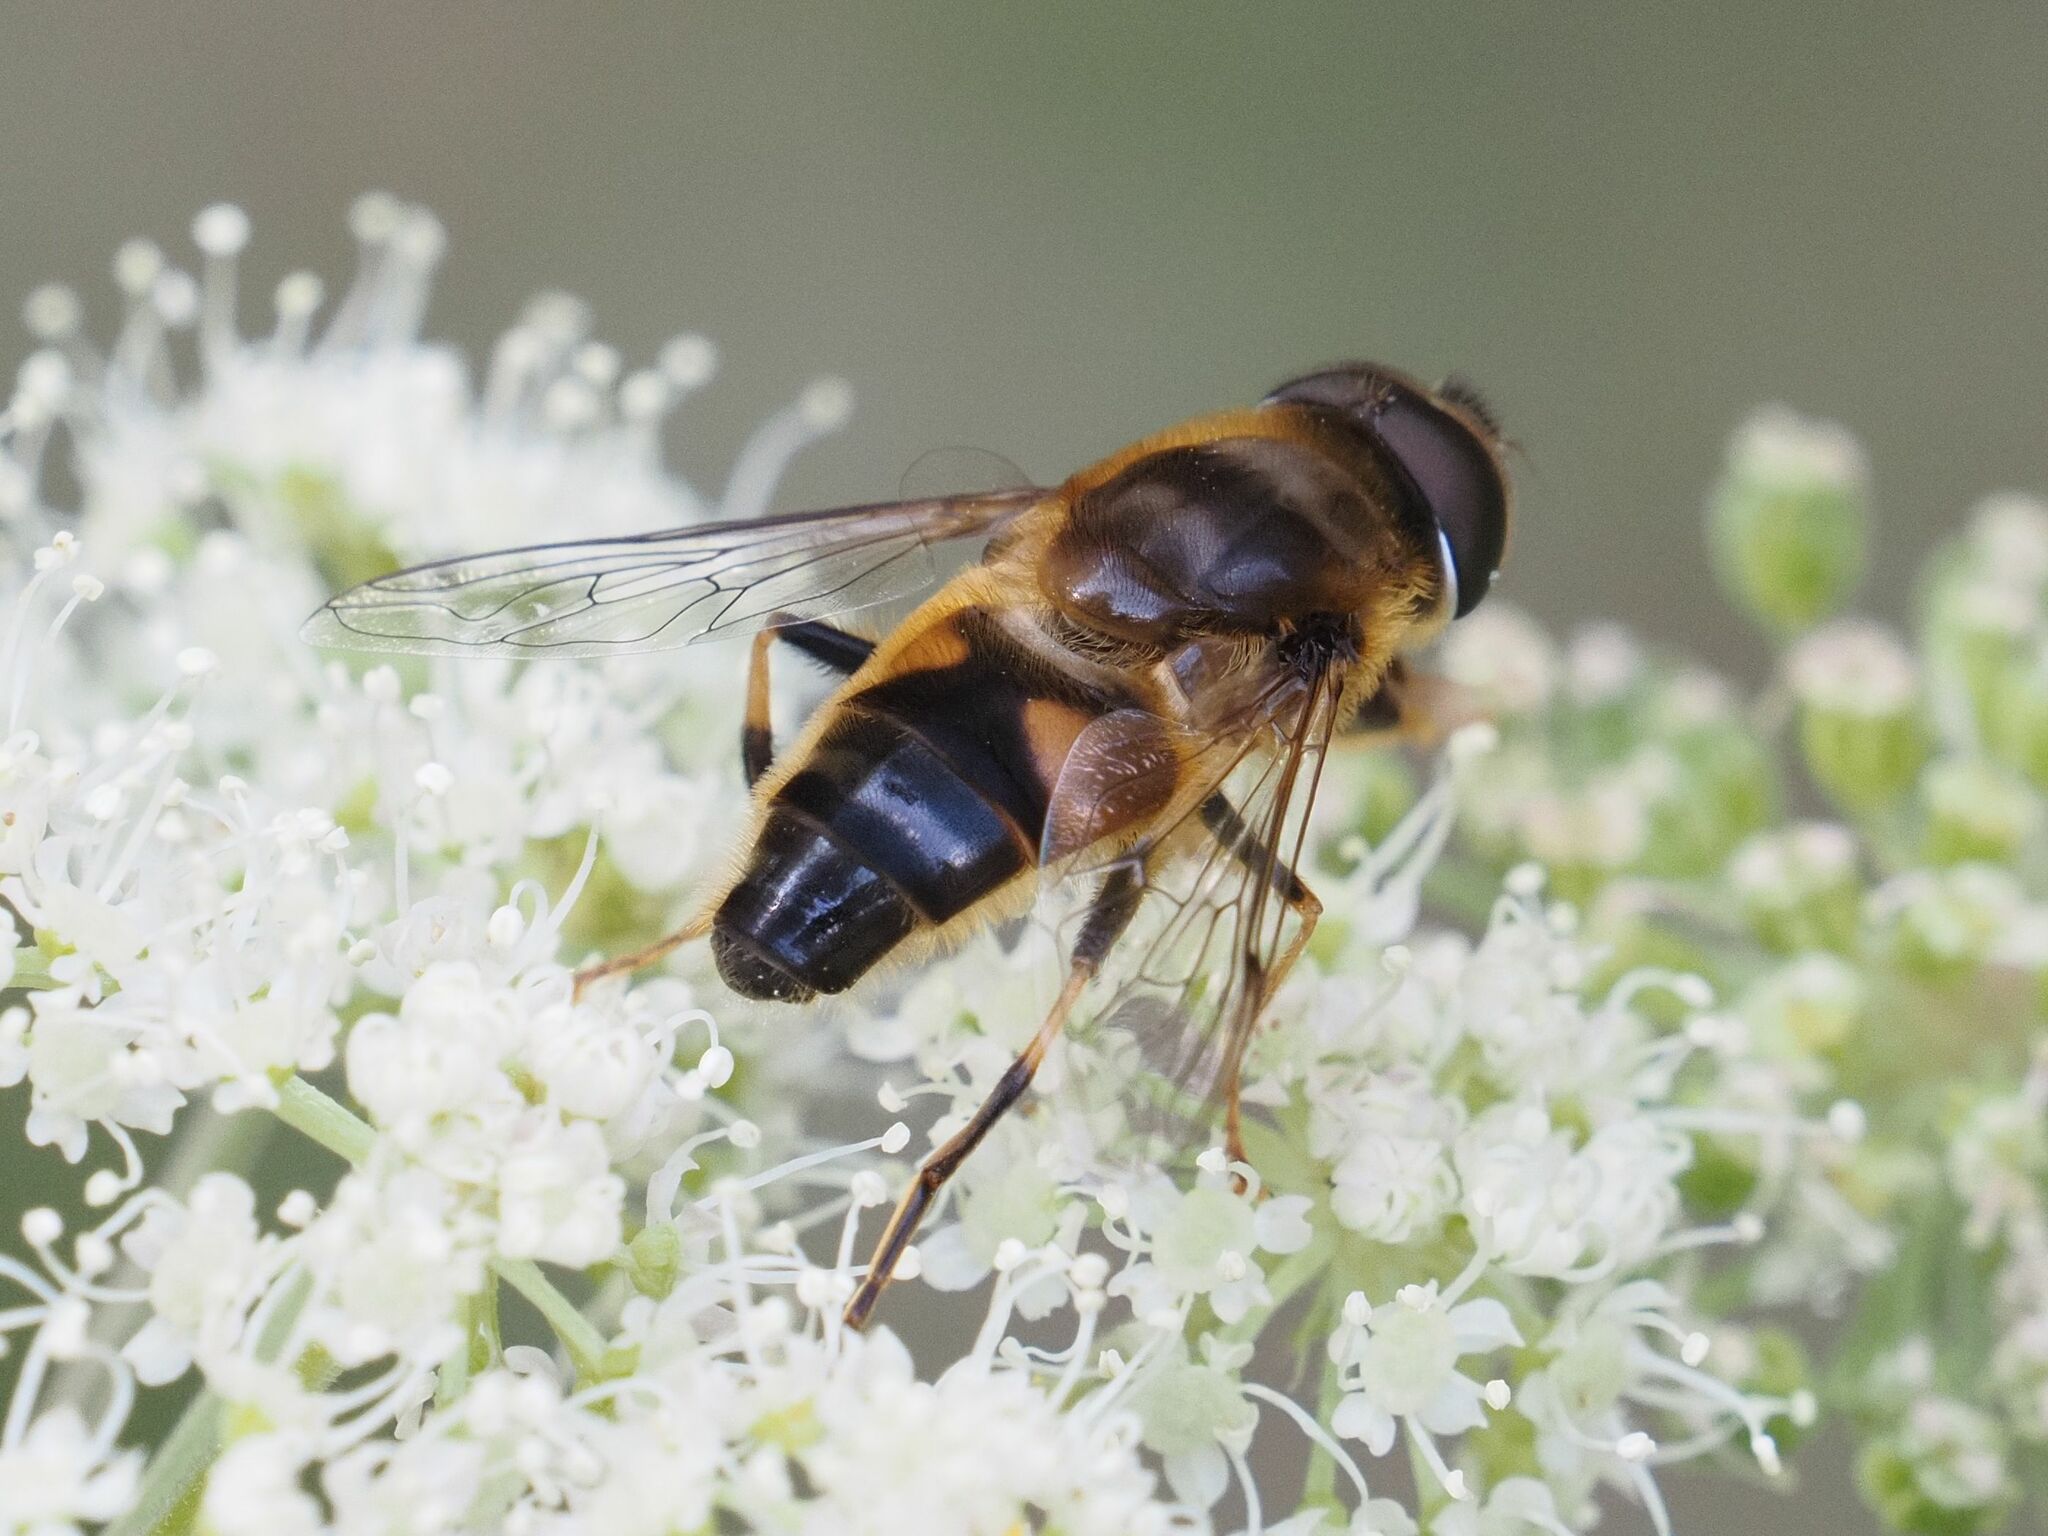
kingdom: Animalia
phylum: Arthropoda
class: Insecta
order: Diptera
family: Syrphidae
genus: Eristalis
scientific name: Eristalis pertinax
